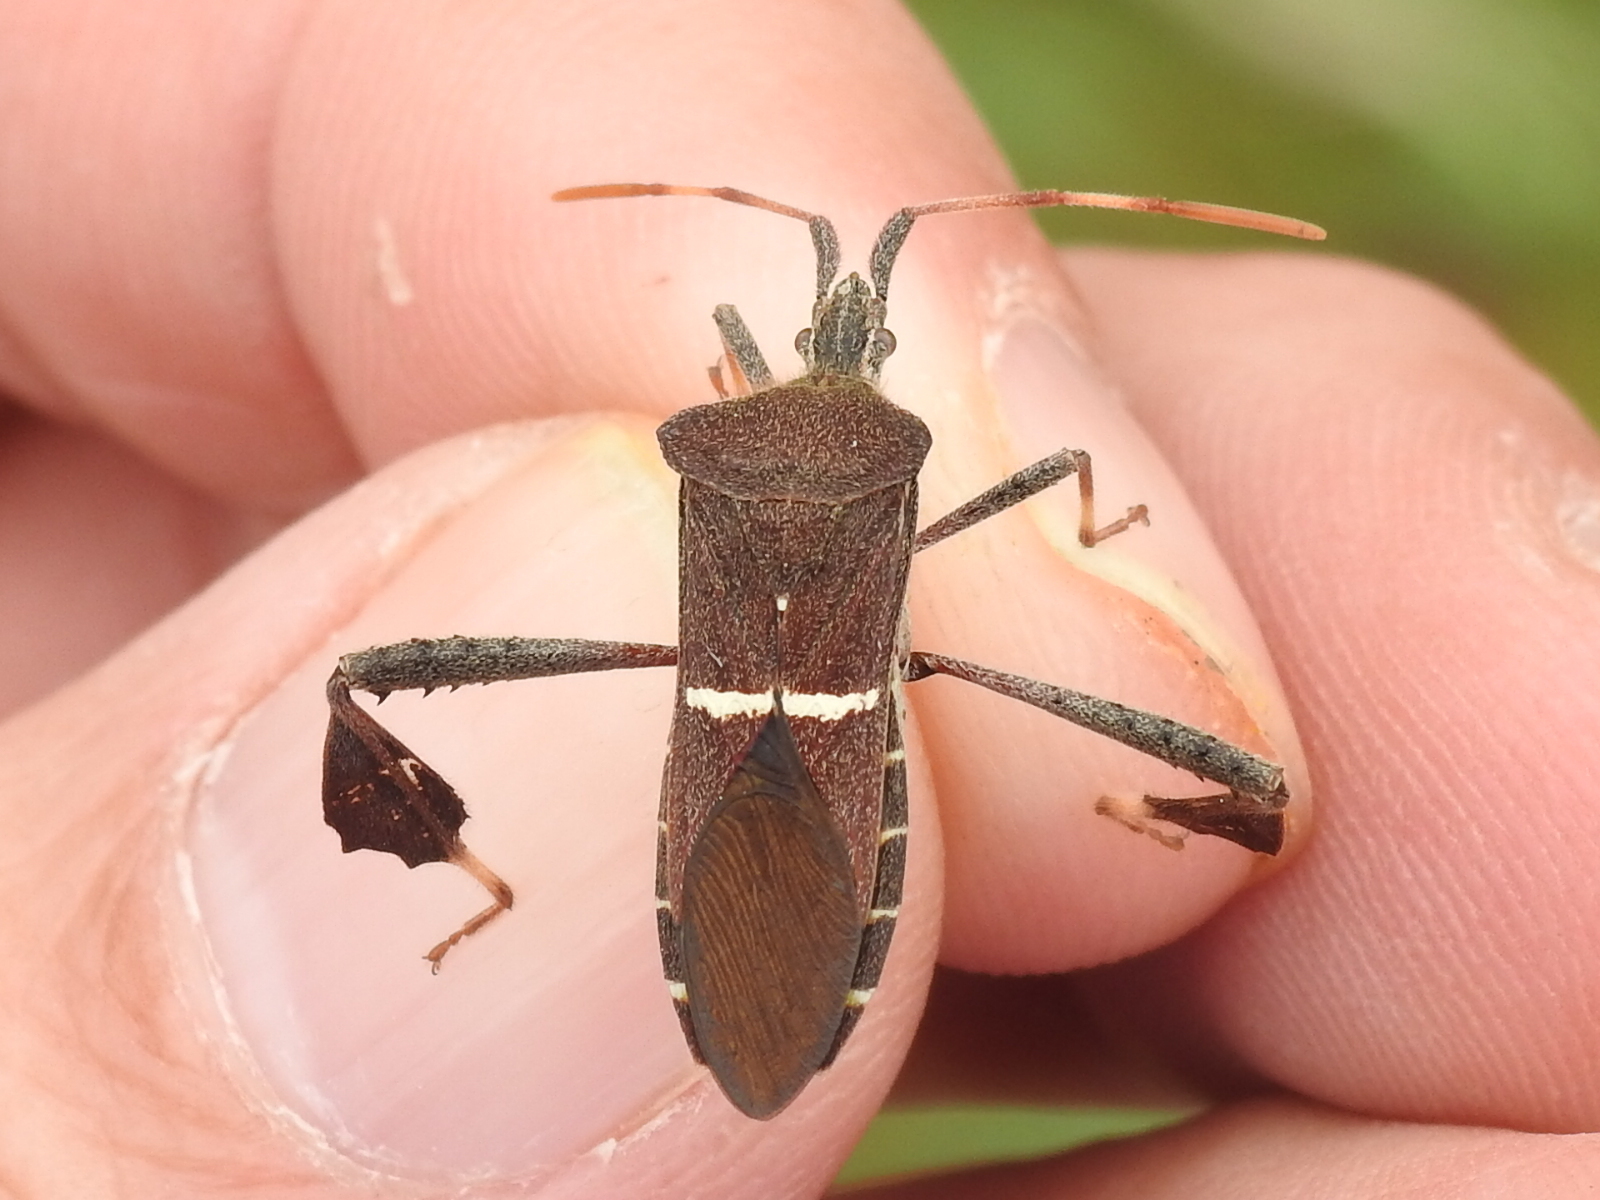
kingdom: Animalia
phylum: Arthropoda
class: Insecta
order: Hemiptera
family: Coreidae
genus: Leptoglossus
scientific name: Leptoglossus phyllopus
